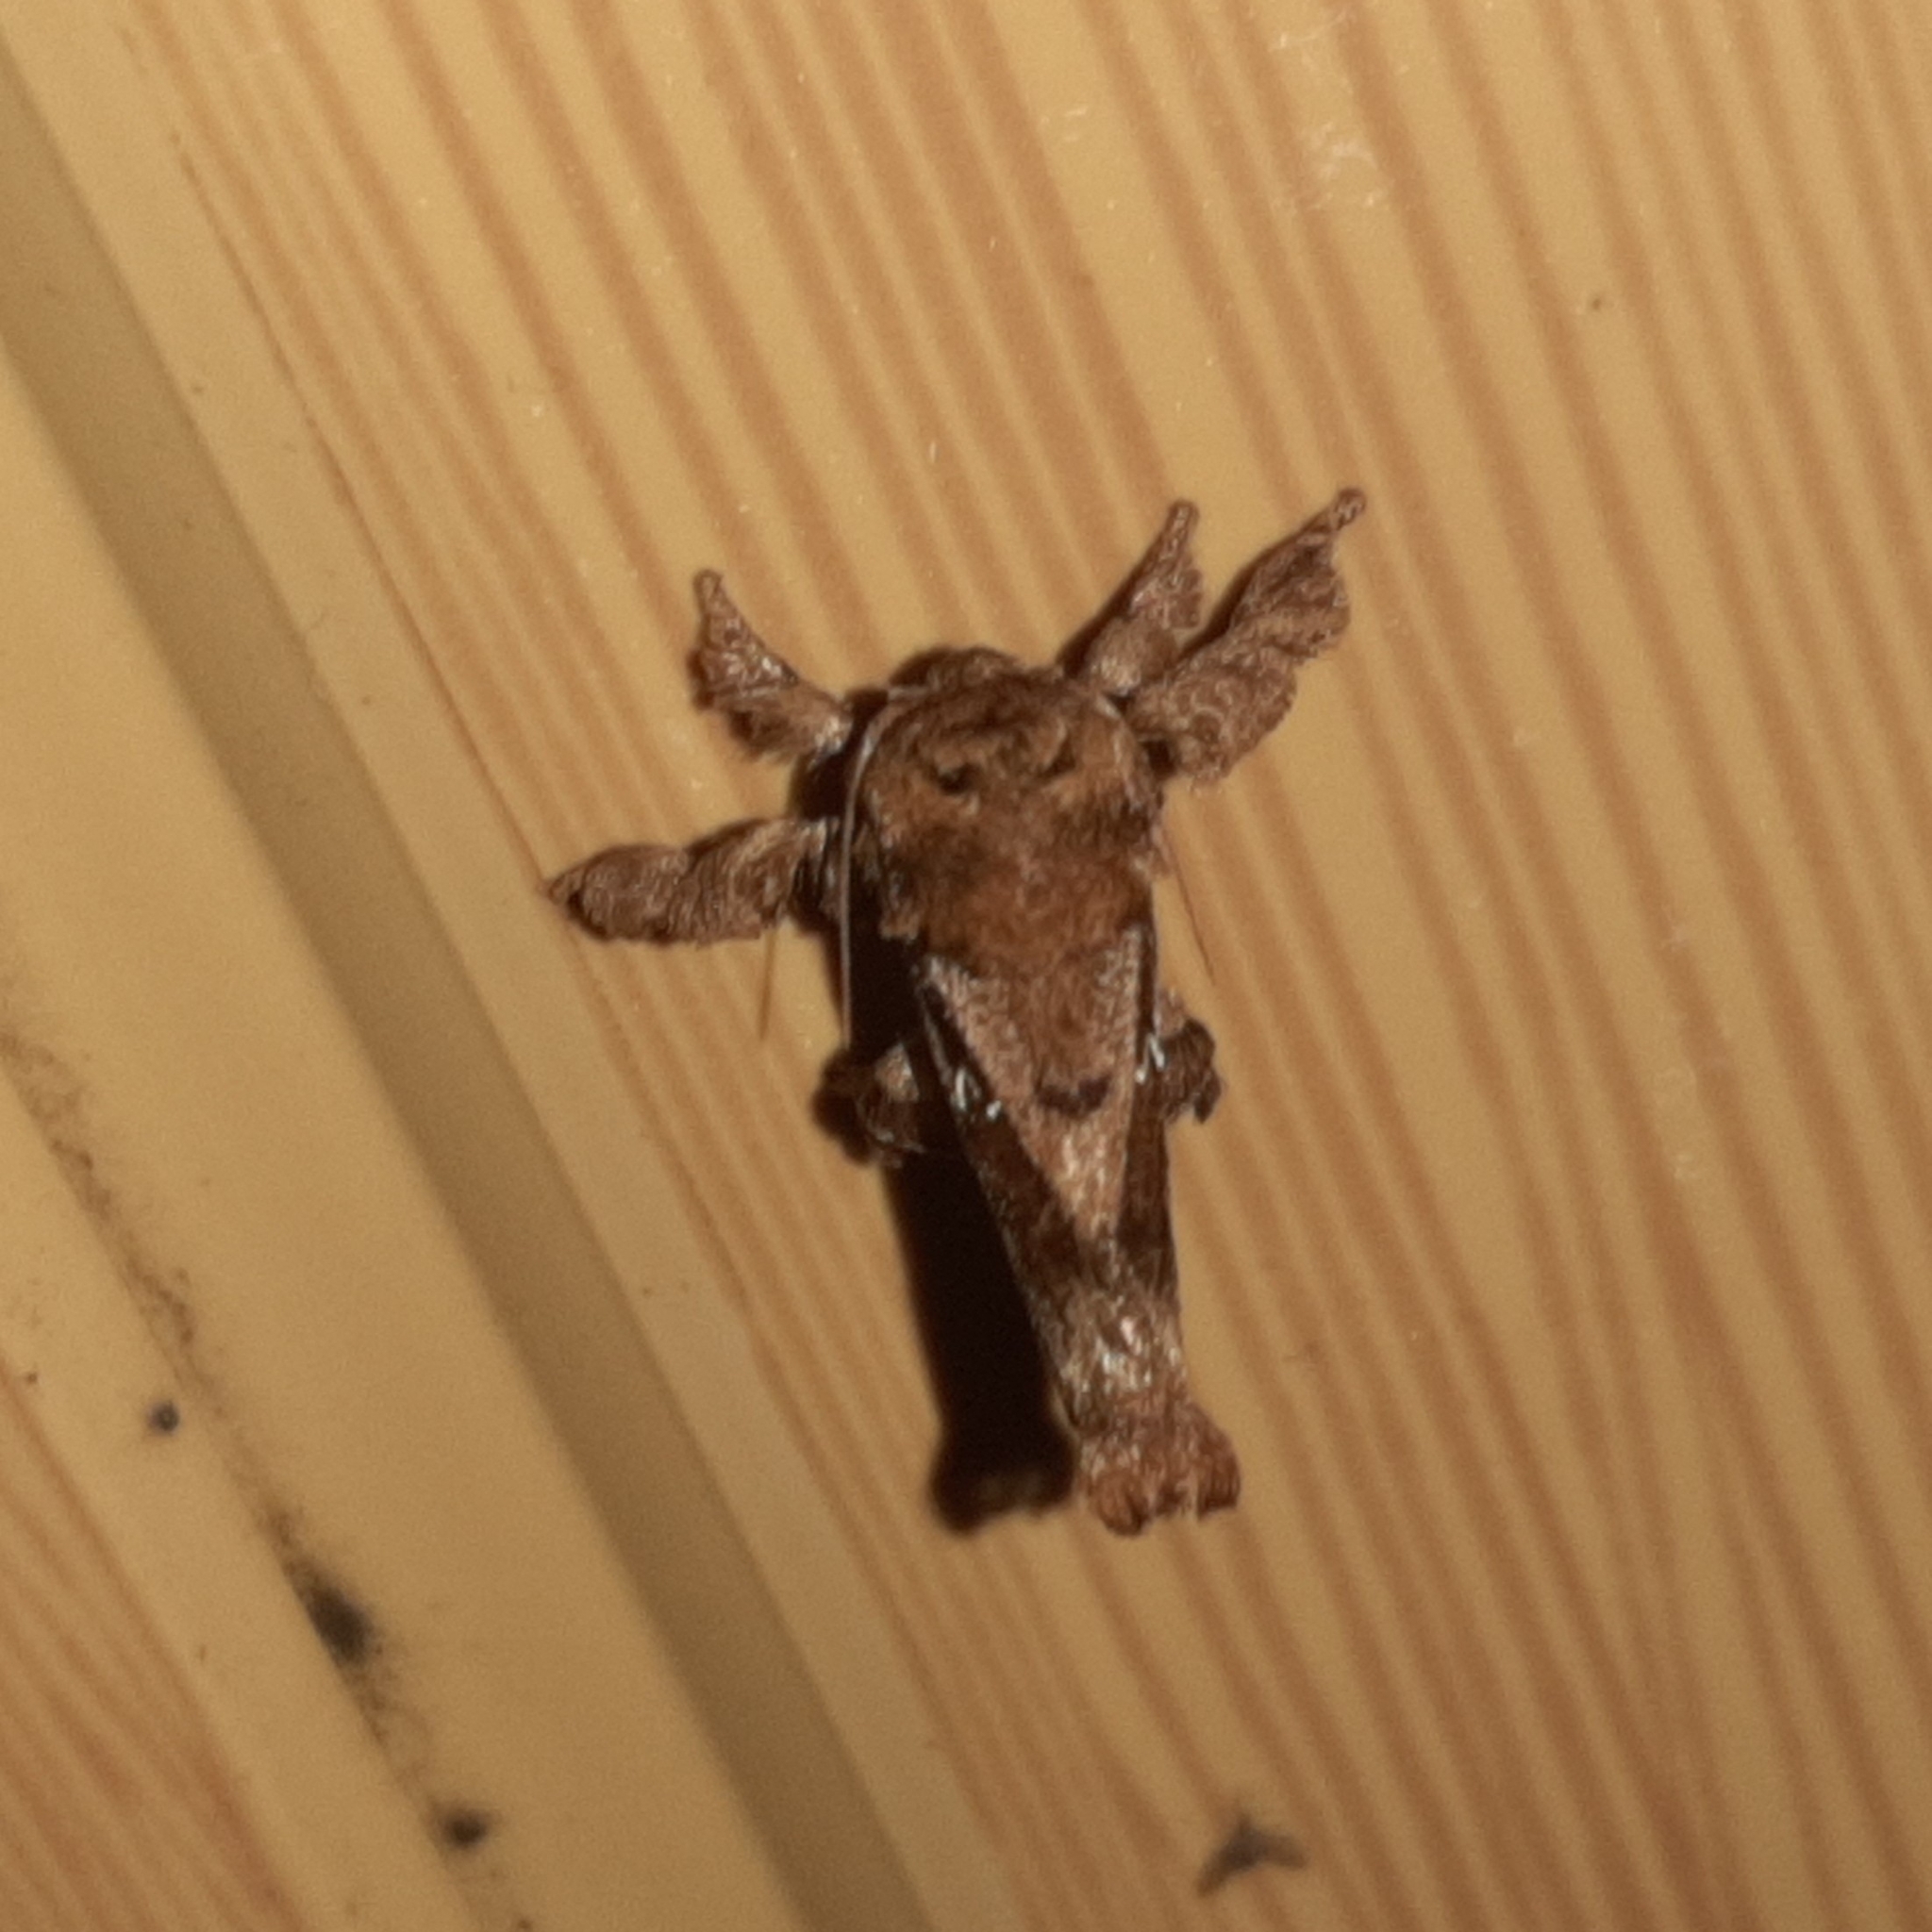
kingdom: Animalia
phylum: Arthropoda
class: Insecta
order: Lepidoptera
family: Limacodidae
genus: Euclea
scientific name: Euclea buscki
